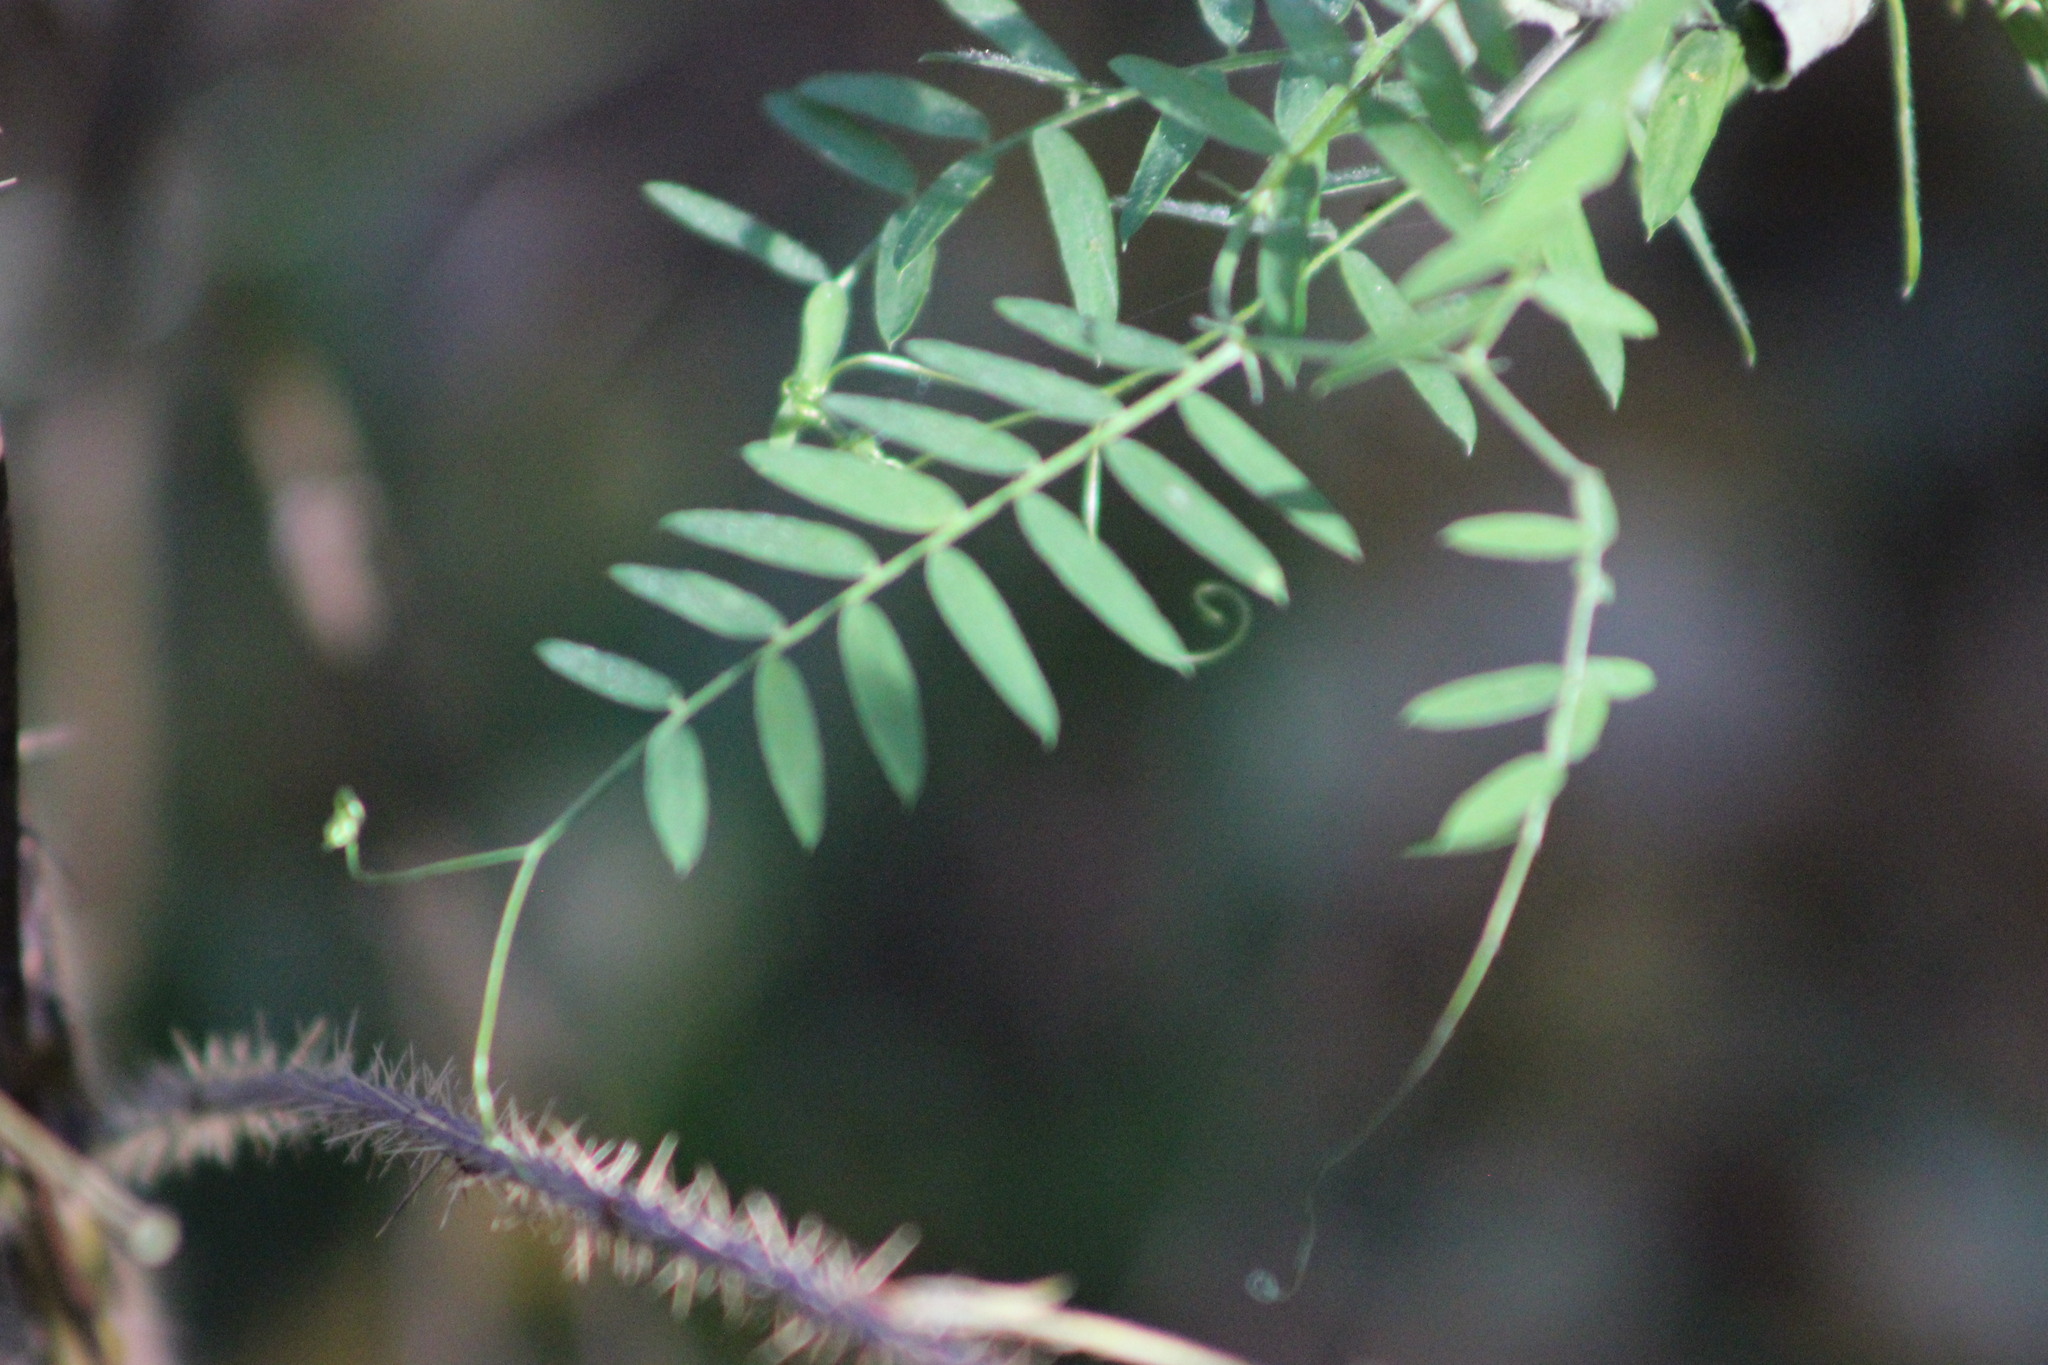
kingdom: Plantae
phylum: Tracheophyta
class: Magnoliopsida
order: Fabales
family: Fabaceae
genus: Vicia
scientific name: Vicia cracca
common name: Bird vetch
